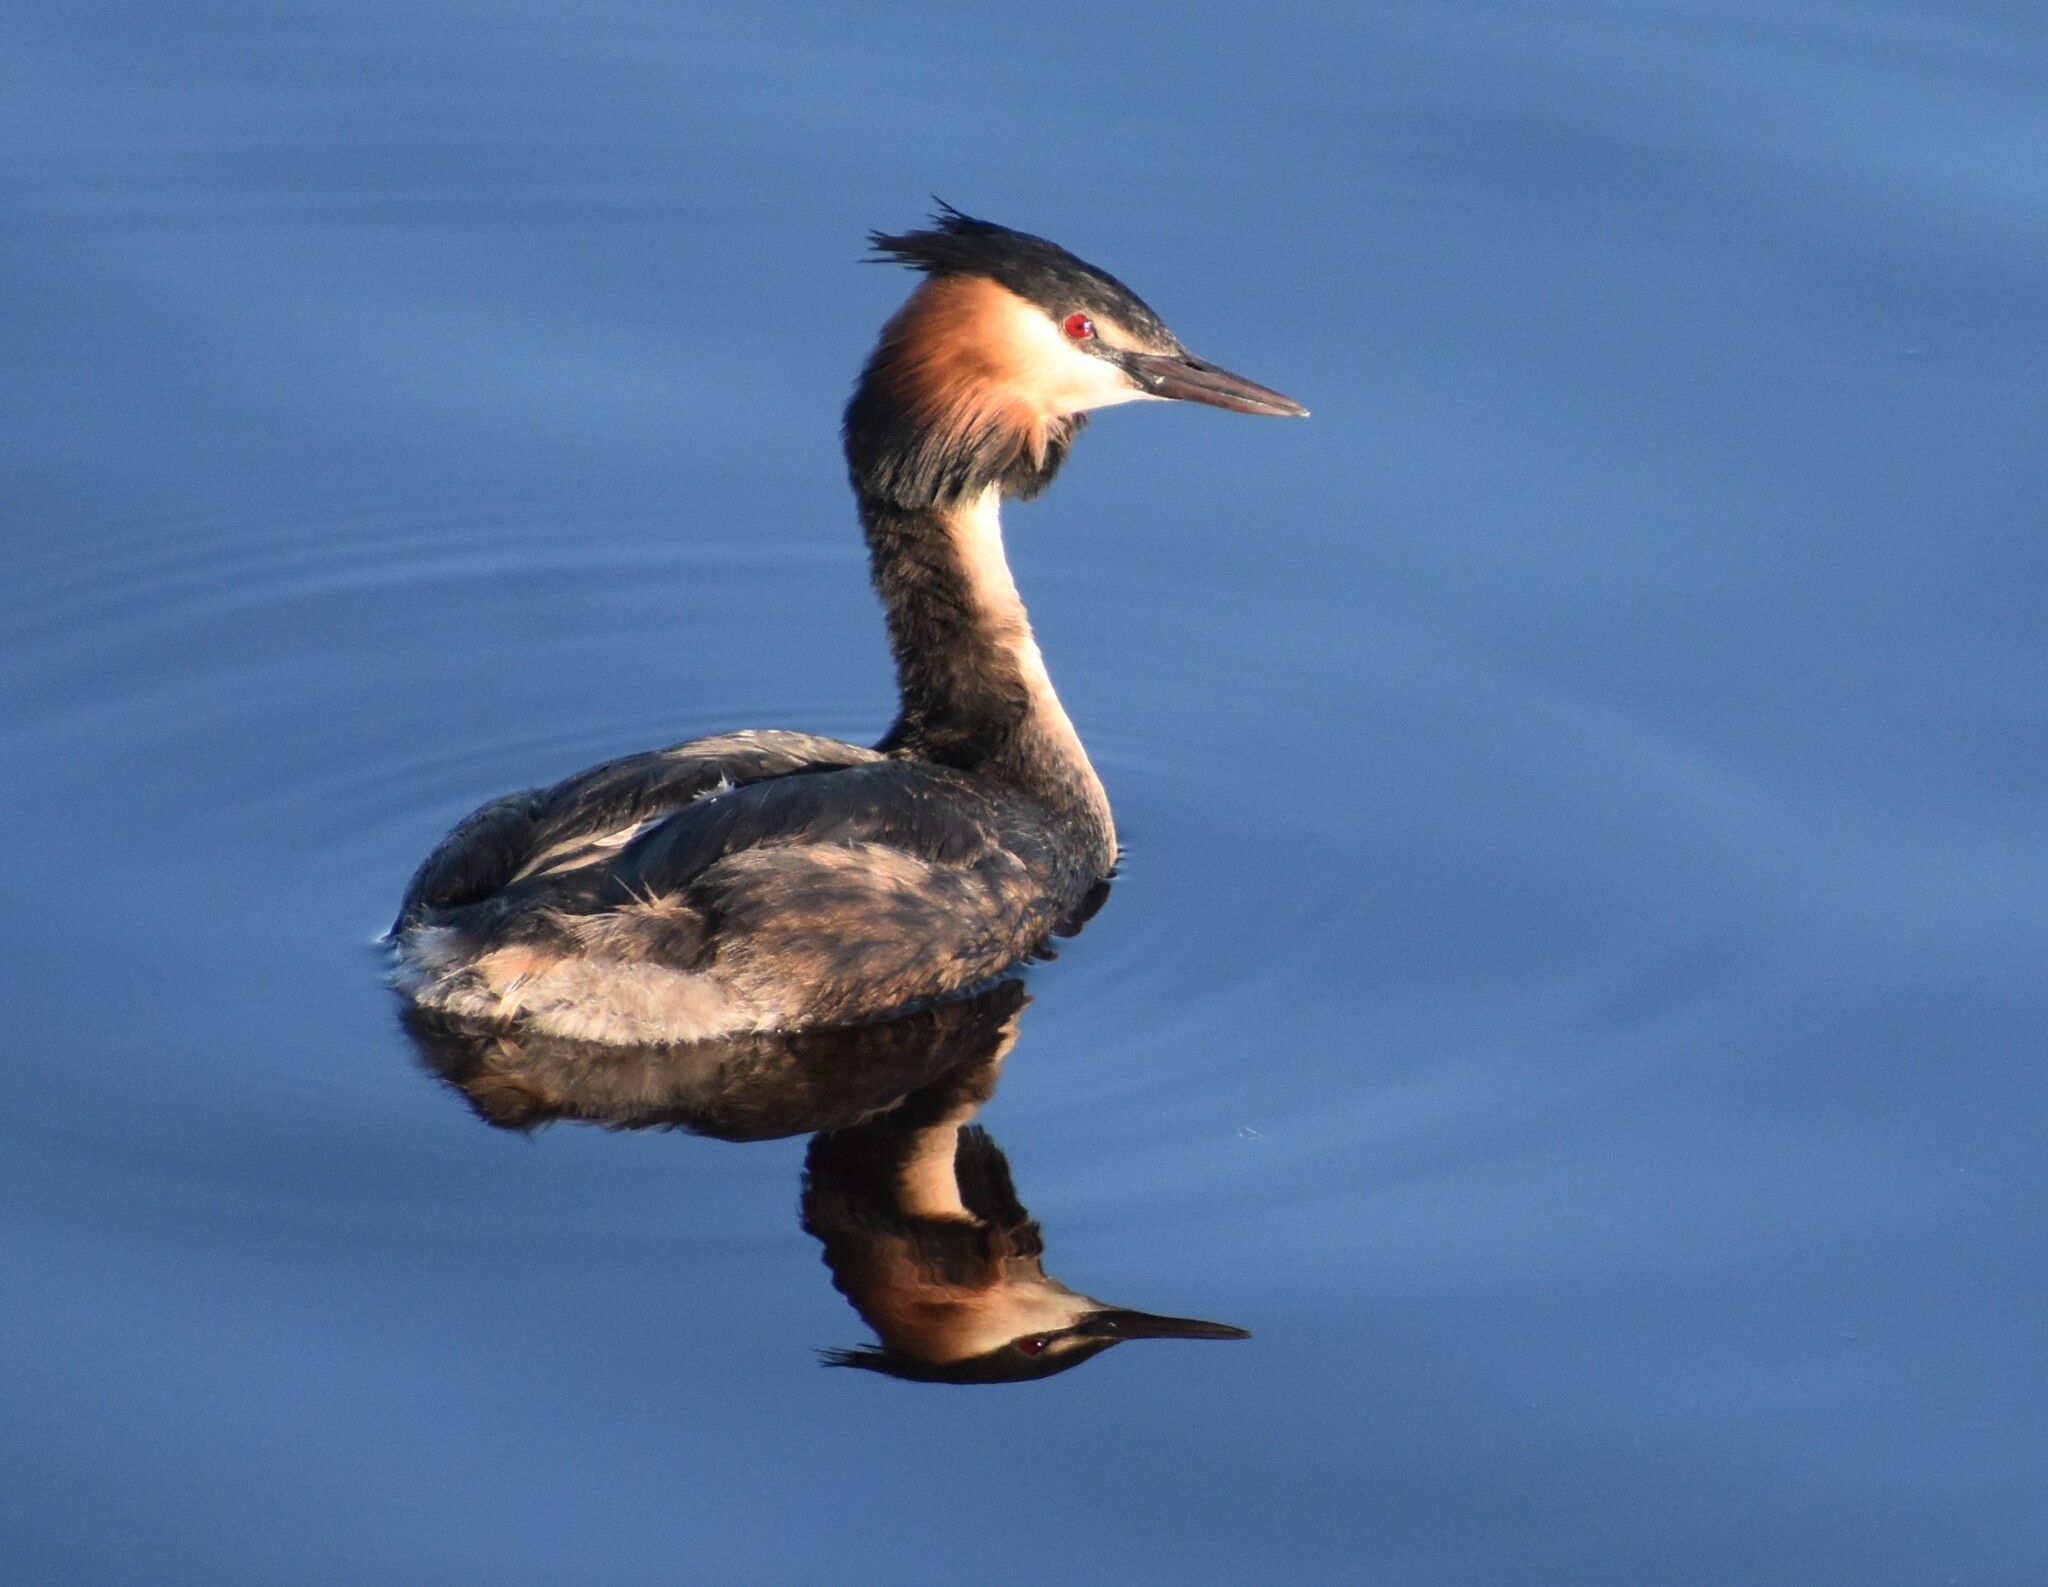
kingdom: Animalia
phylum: Chordata
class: Aves
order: Podicipediformes
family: Podicipedidae
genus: Podiceps
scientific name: Podiceps cristatus
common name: Great crested grebe
